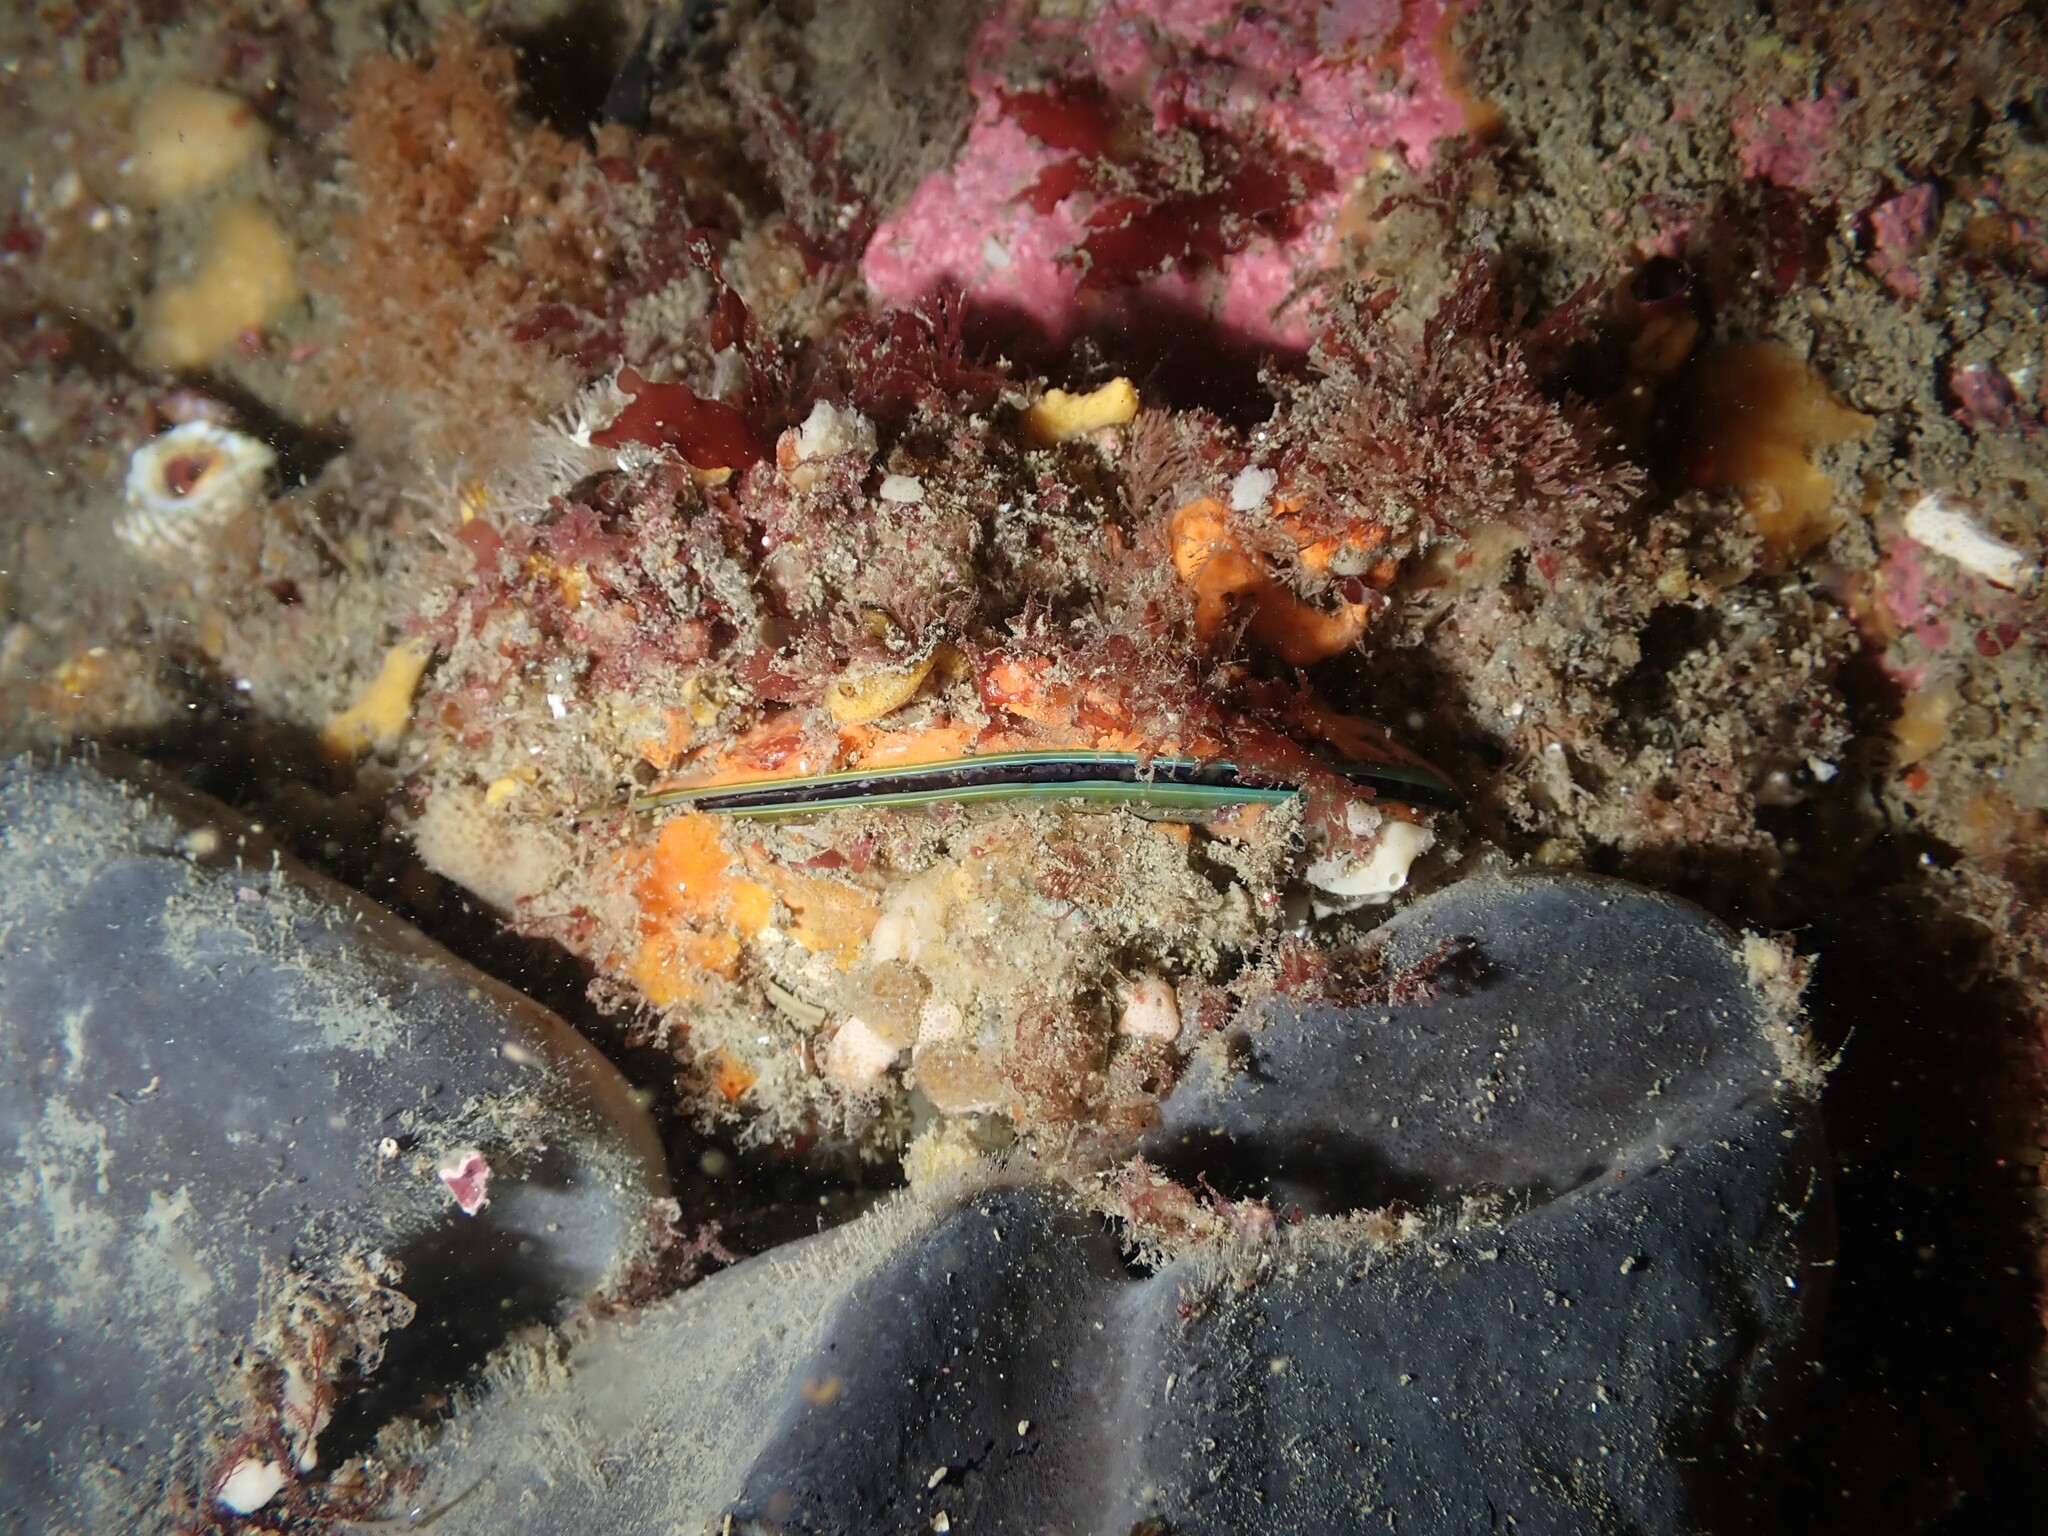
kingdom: Animalia
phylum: Mollusca
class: Bivalvia
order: Mytilida
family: Mytilidae
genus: Perna
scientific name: Perna canaliculus
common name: New zealand greenshelltm
